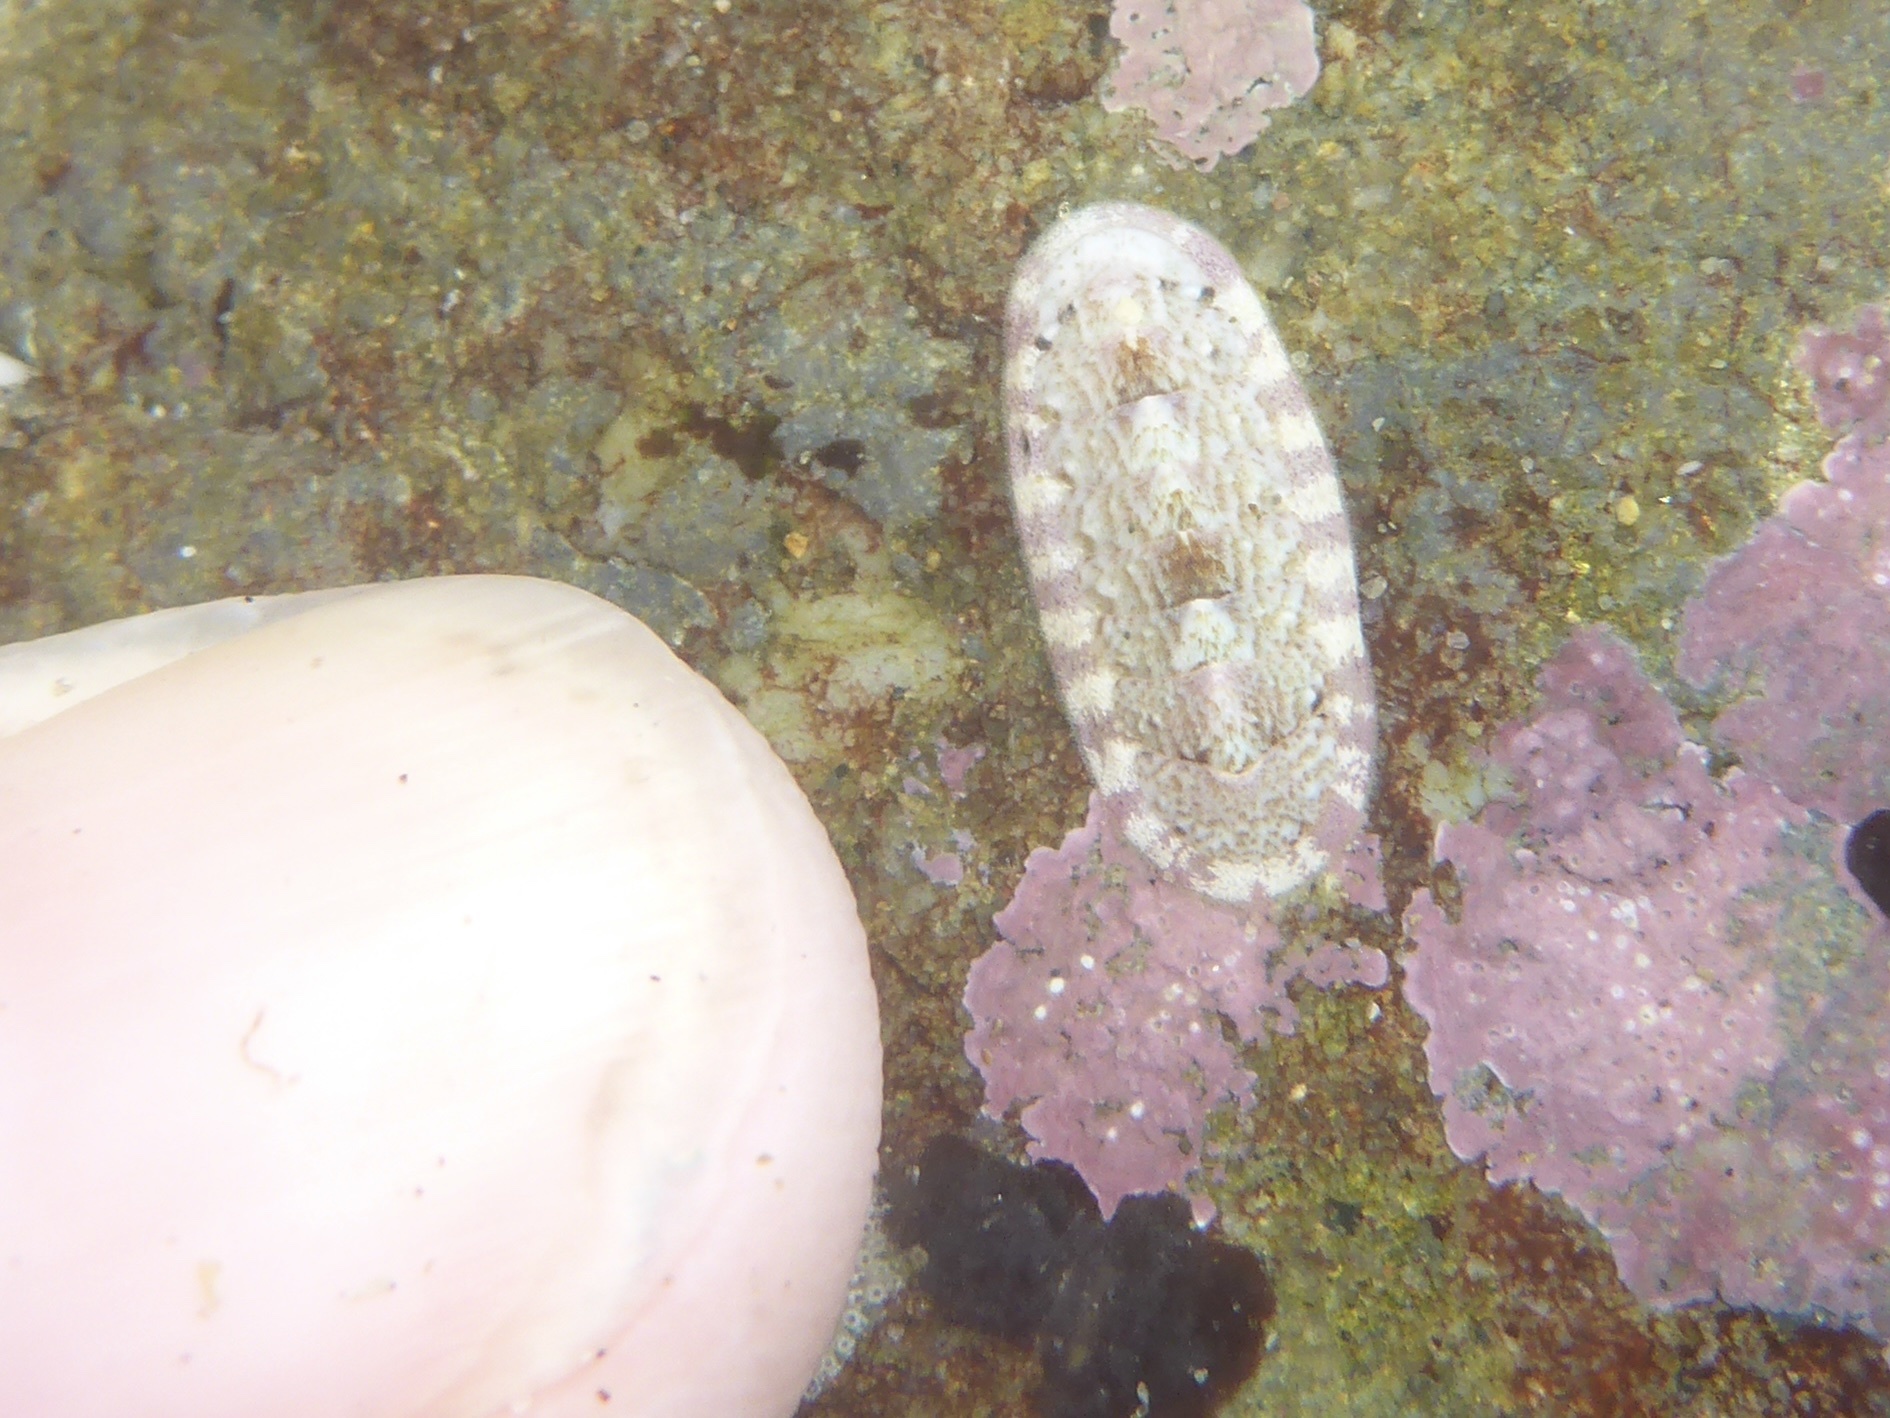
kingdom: Animalia
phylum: Mollusca
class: Polyplacophora
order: Chitonida
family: Ischnochitonidae
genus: Stenoplax
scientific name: Stenoplax heathiana
